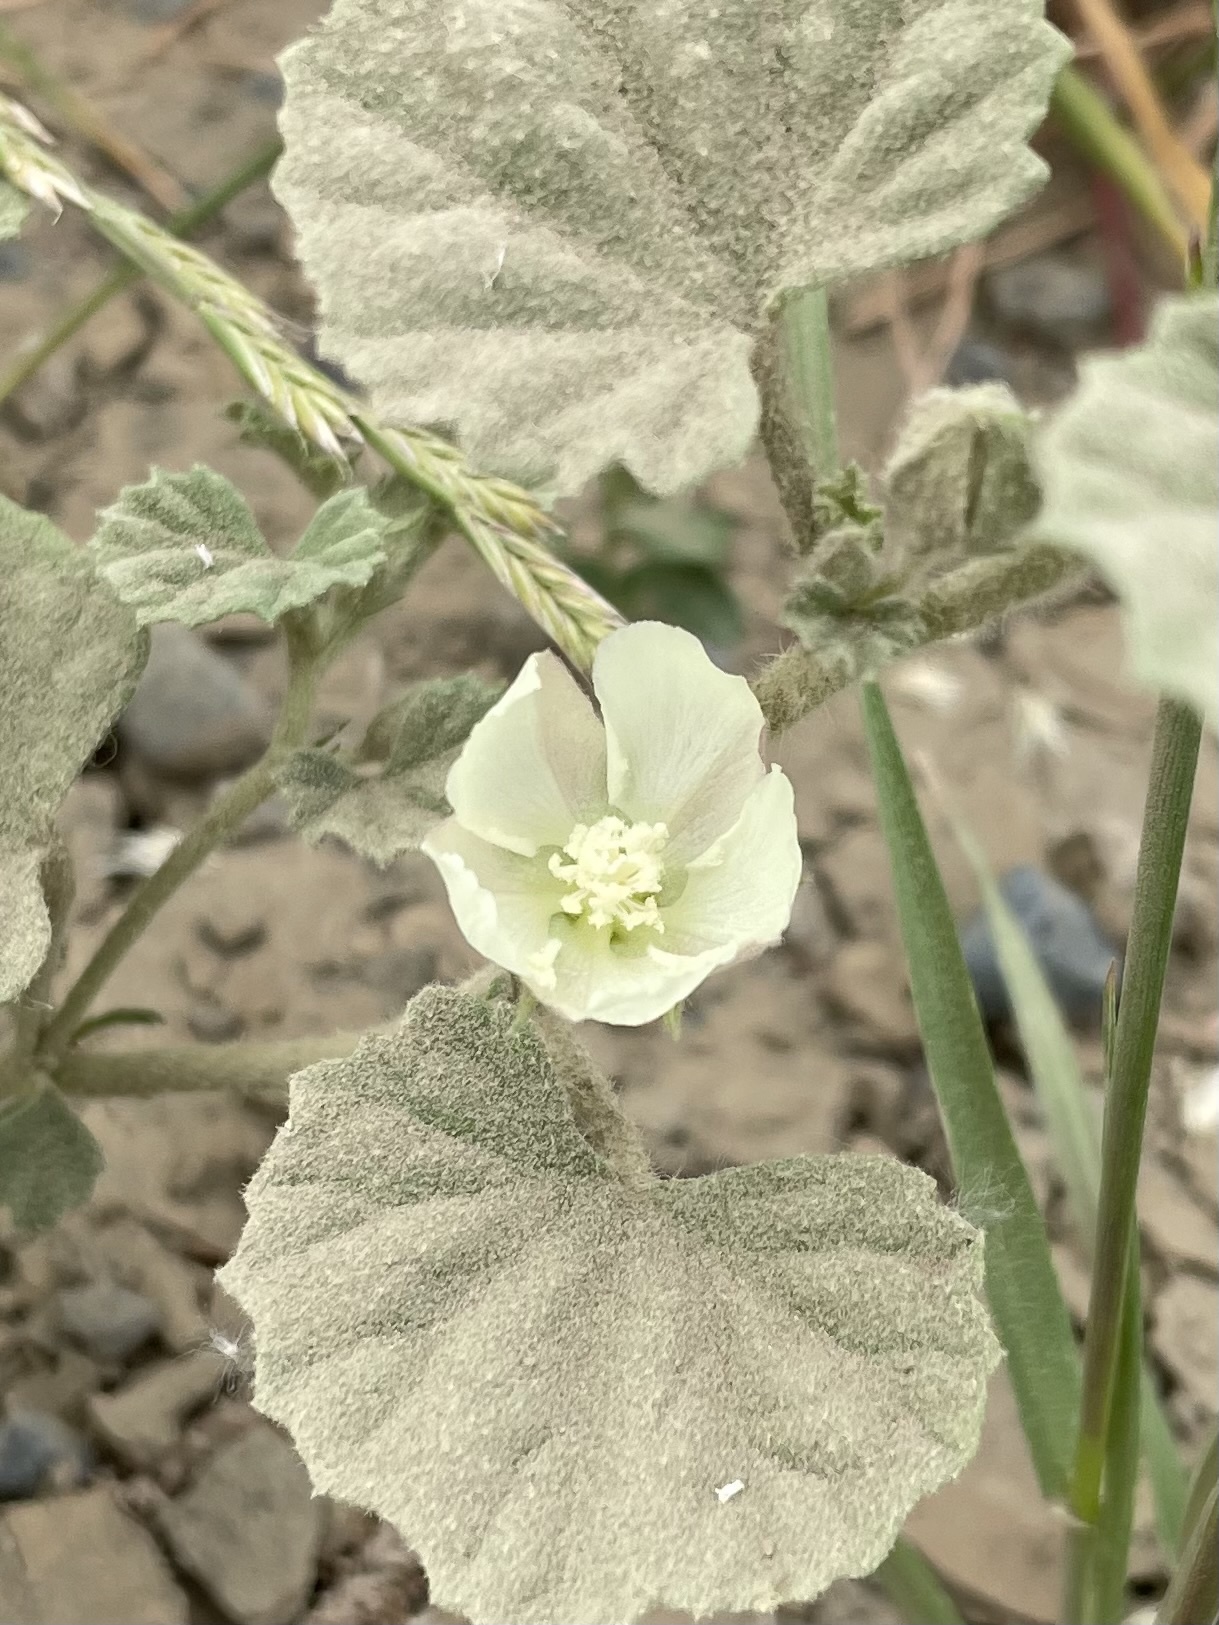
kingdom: Plantae
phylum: Tracheophyta
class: Magnoliopsida
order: Malvales
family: Malvaceae
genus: Malvella
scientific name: Malvella leprosa
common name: Alkali-mallow
